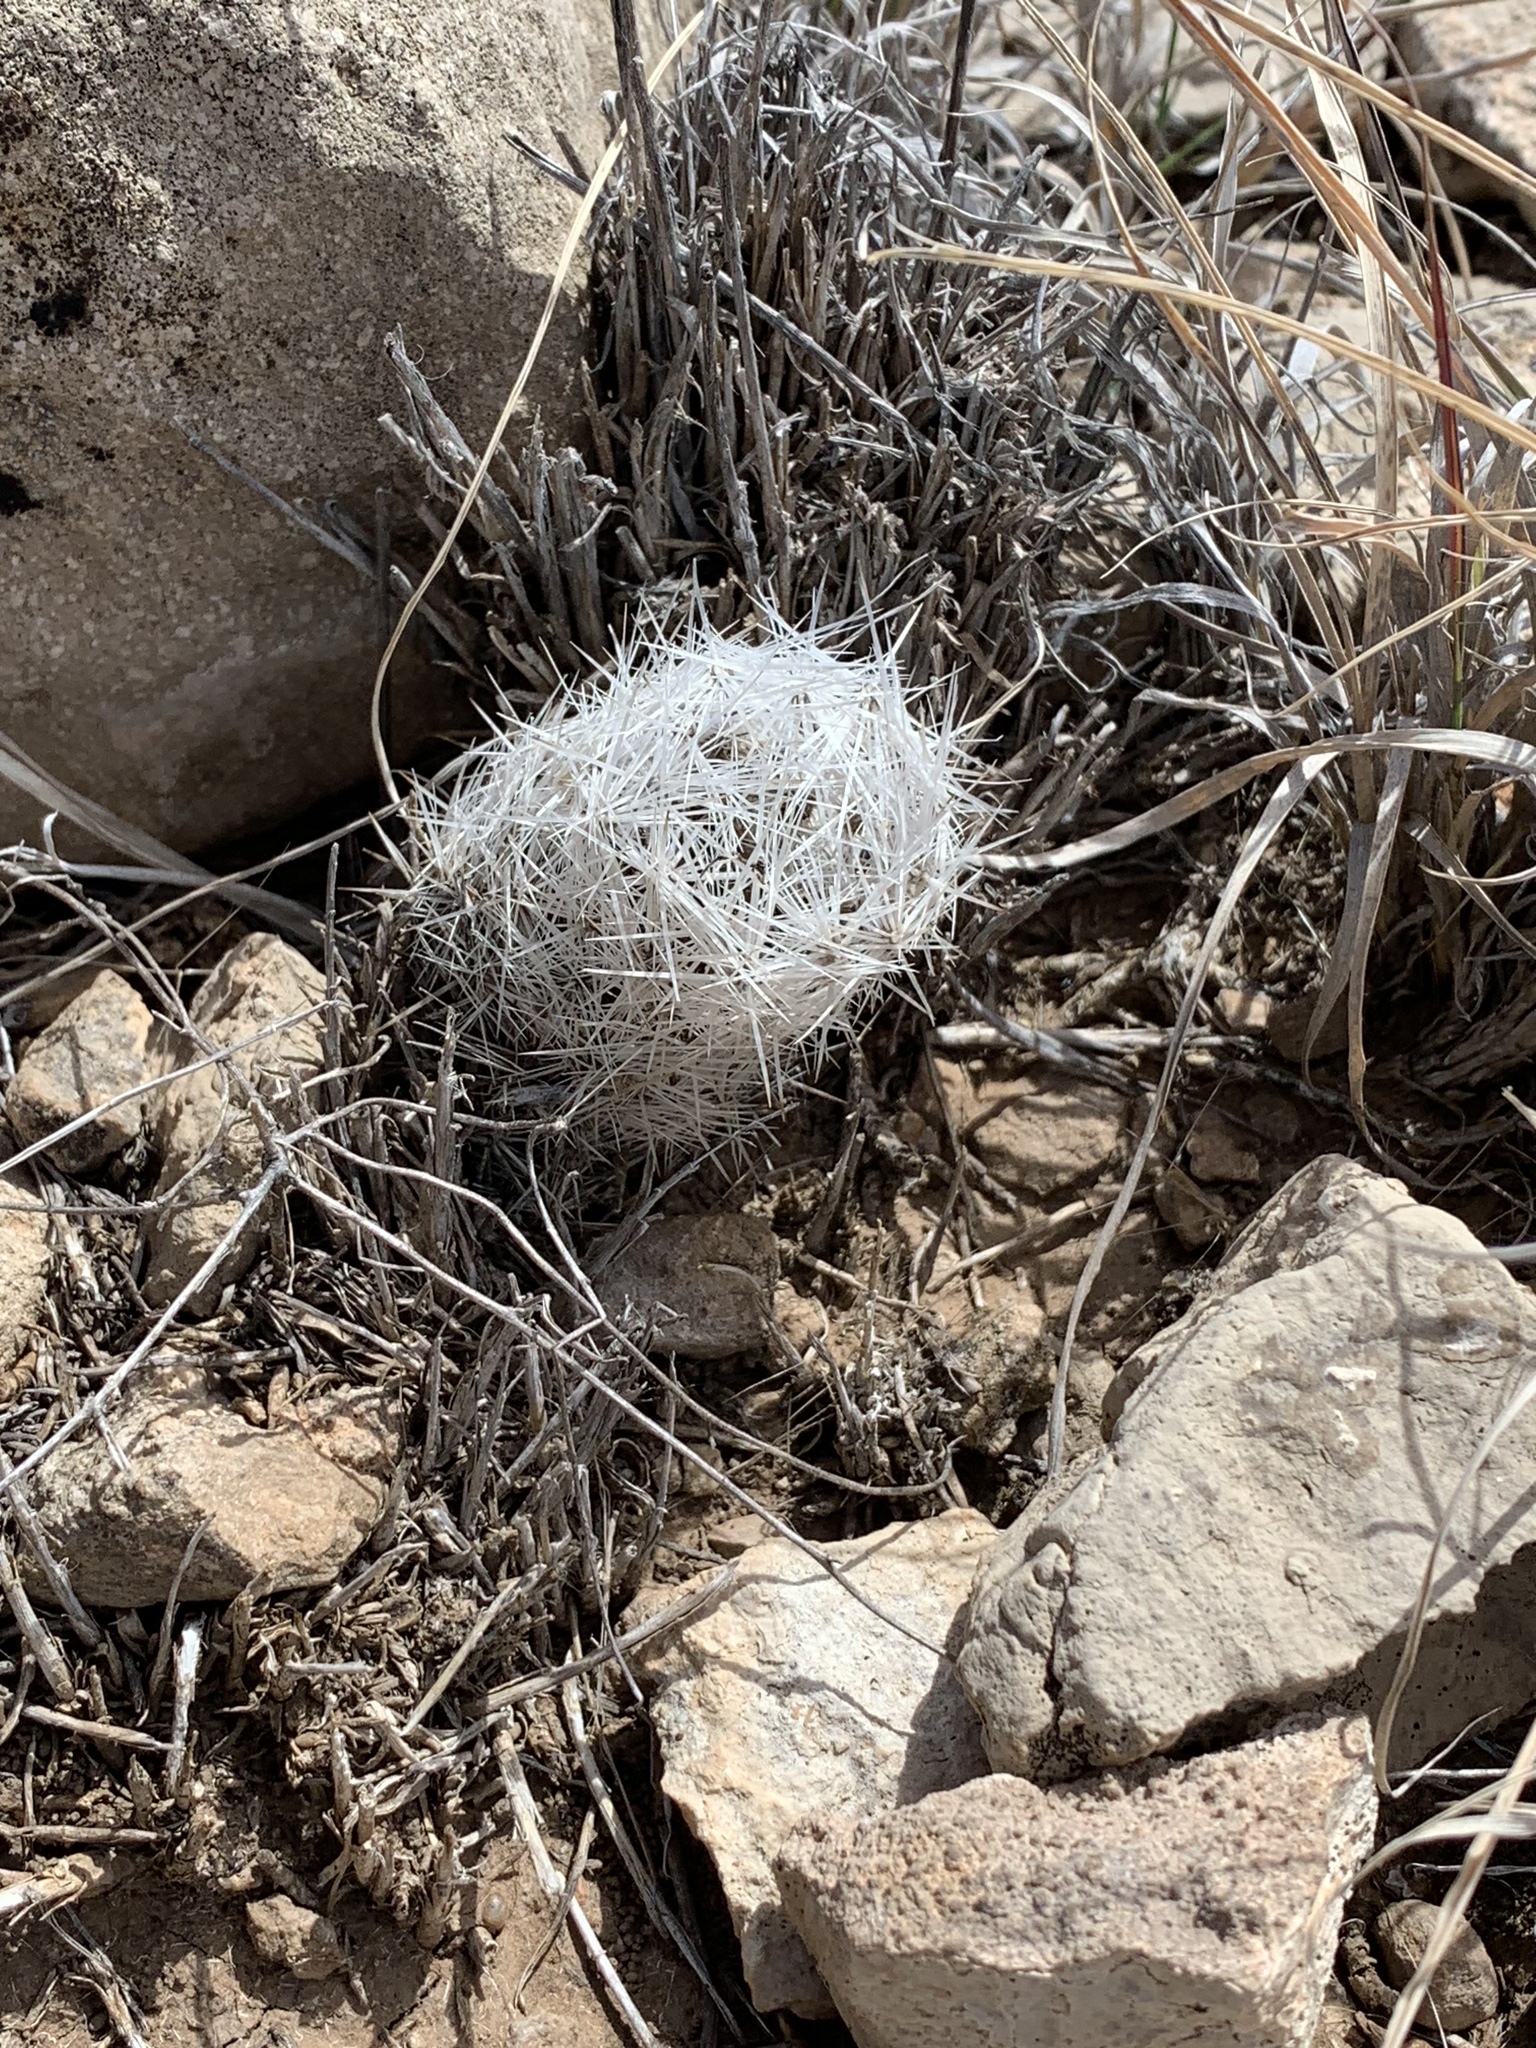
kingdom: Plantae
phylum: Tracheophyta
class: Magnoliopsida
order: Caryophyllales
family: Cactaceae
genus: Pelecyphora
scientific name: Pelecyphora vivipara
